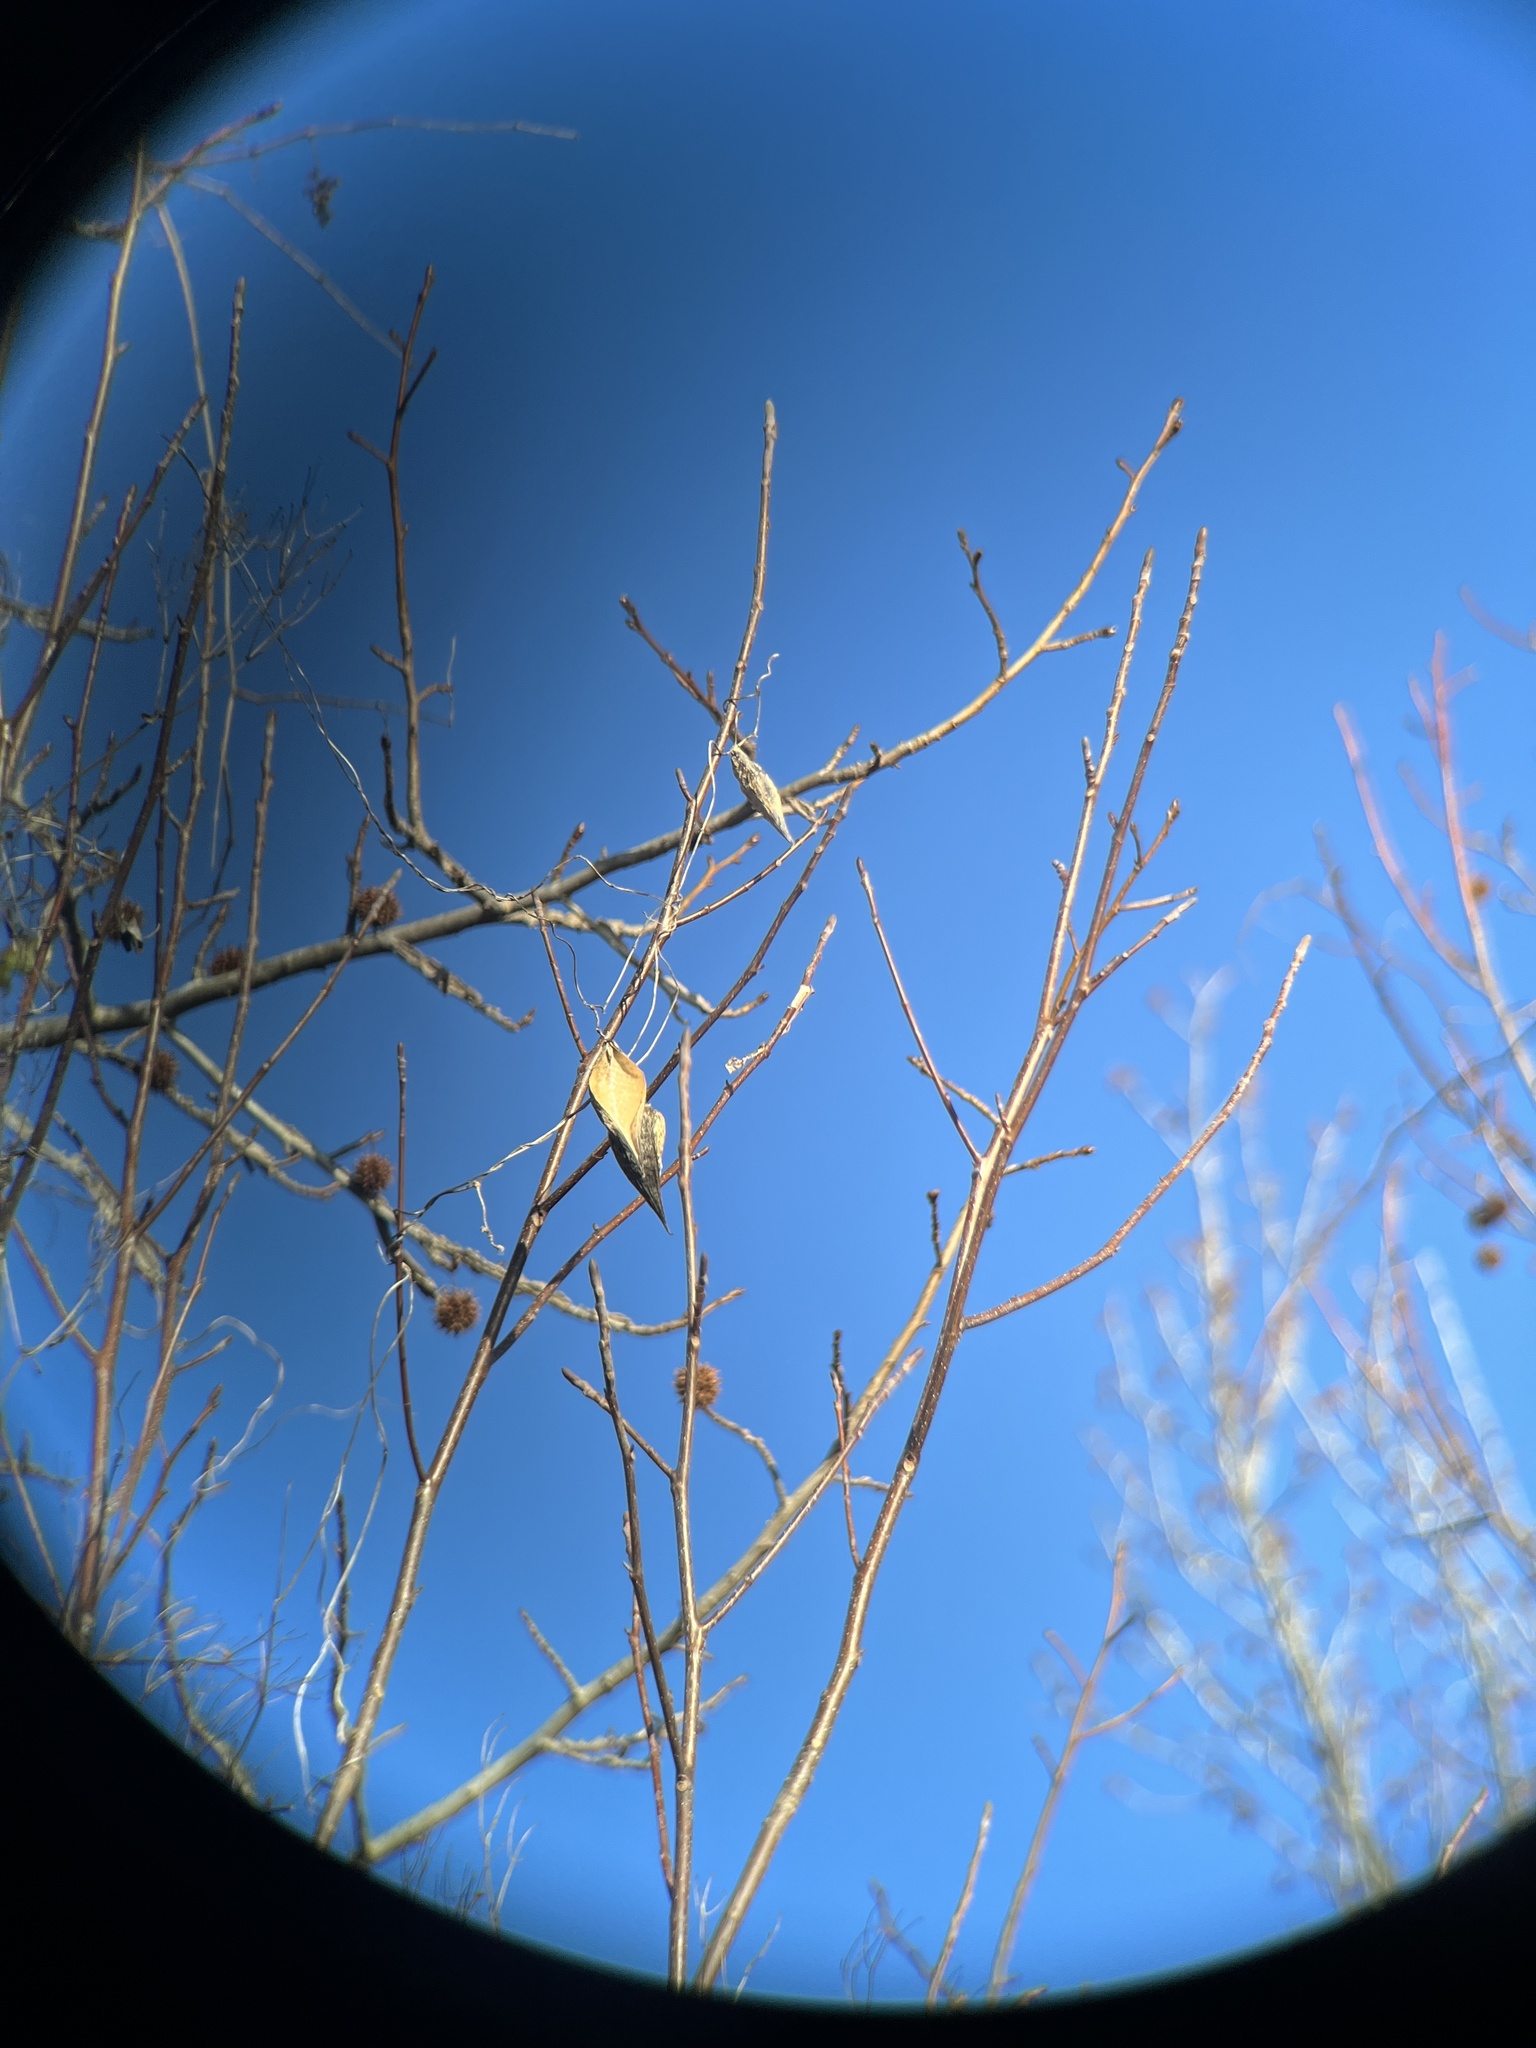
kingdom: Plantae
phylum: Tracheophyta
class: Magnoliopsida
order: Gentianales
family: Apocynaceae
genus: Cynanchum
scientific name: Cynanchum laeve
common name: Sandvine
